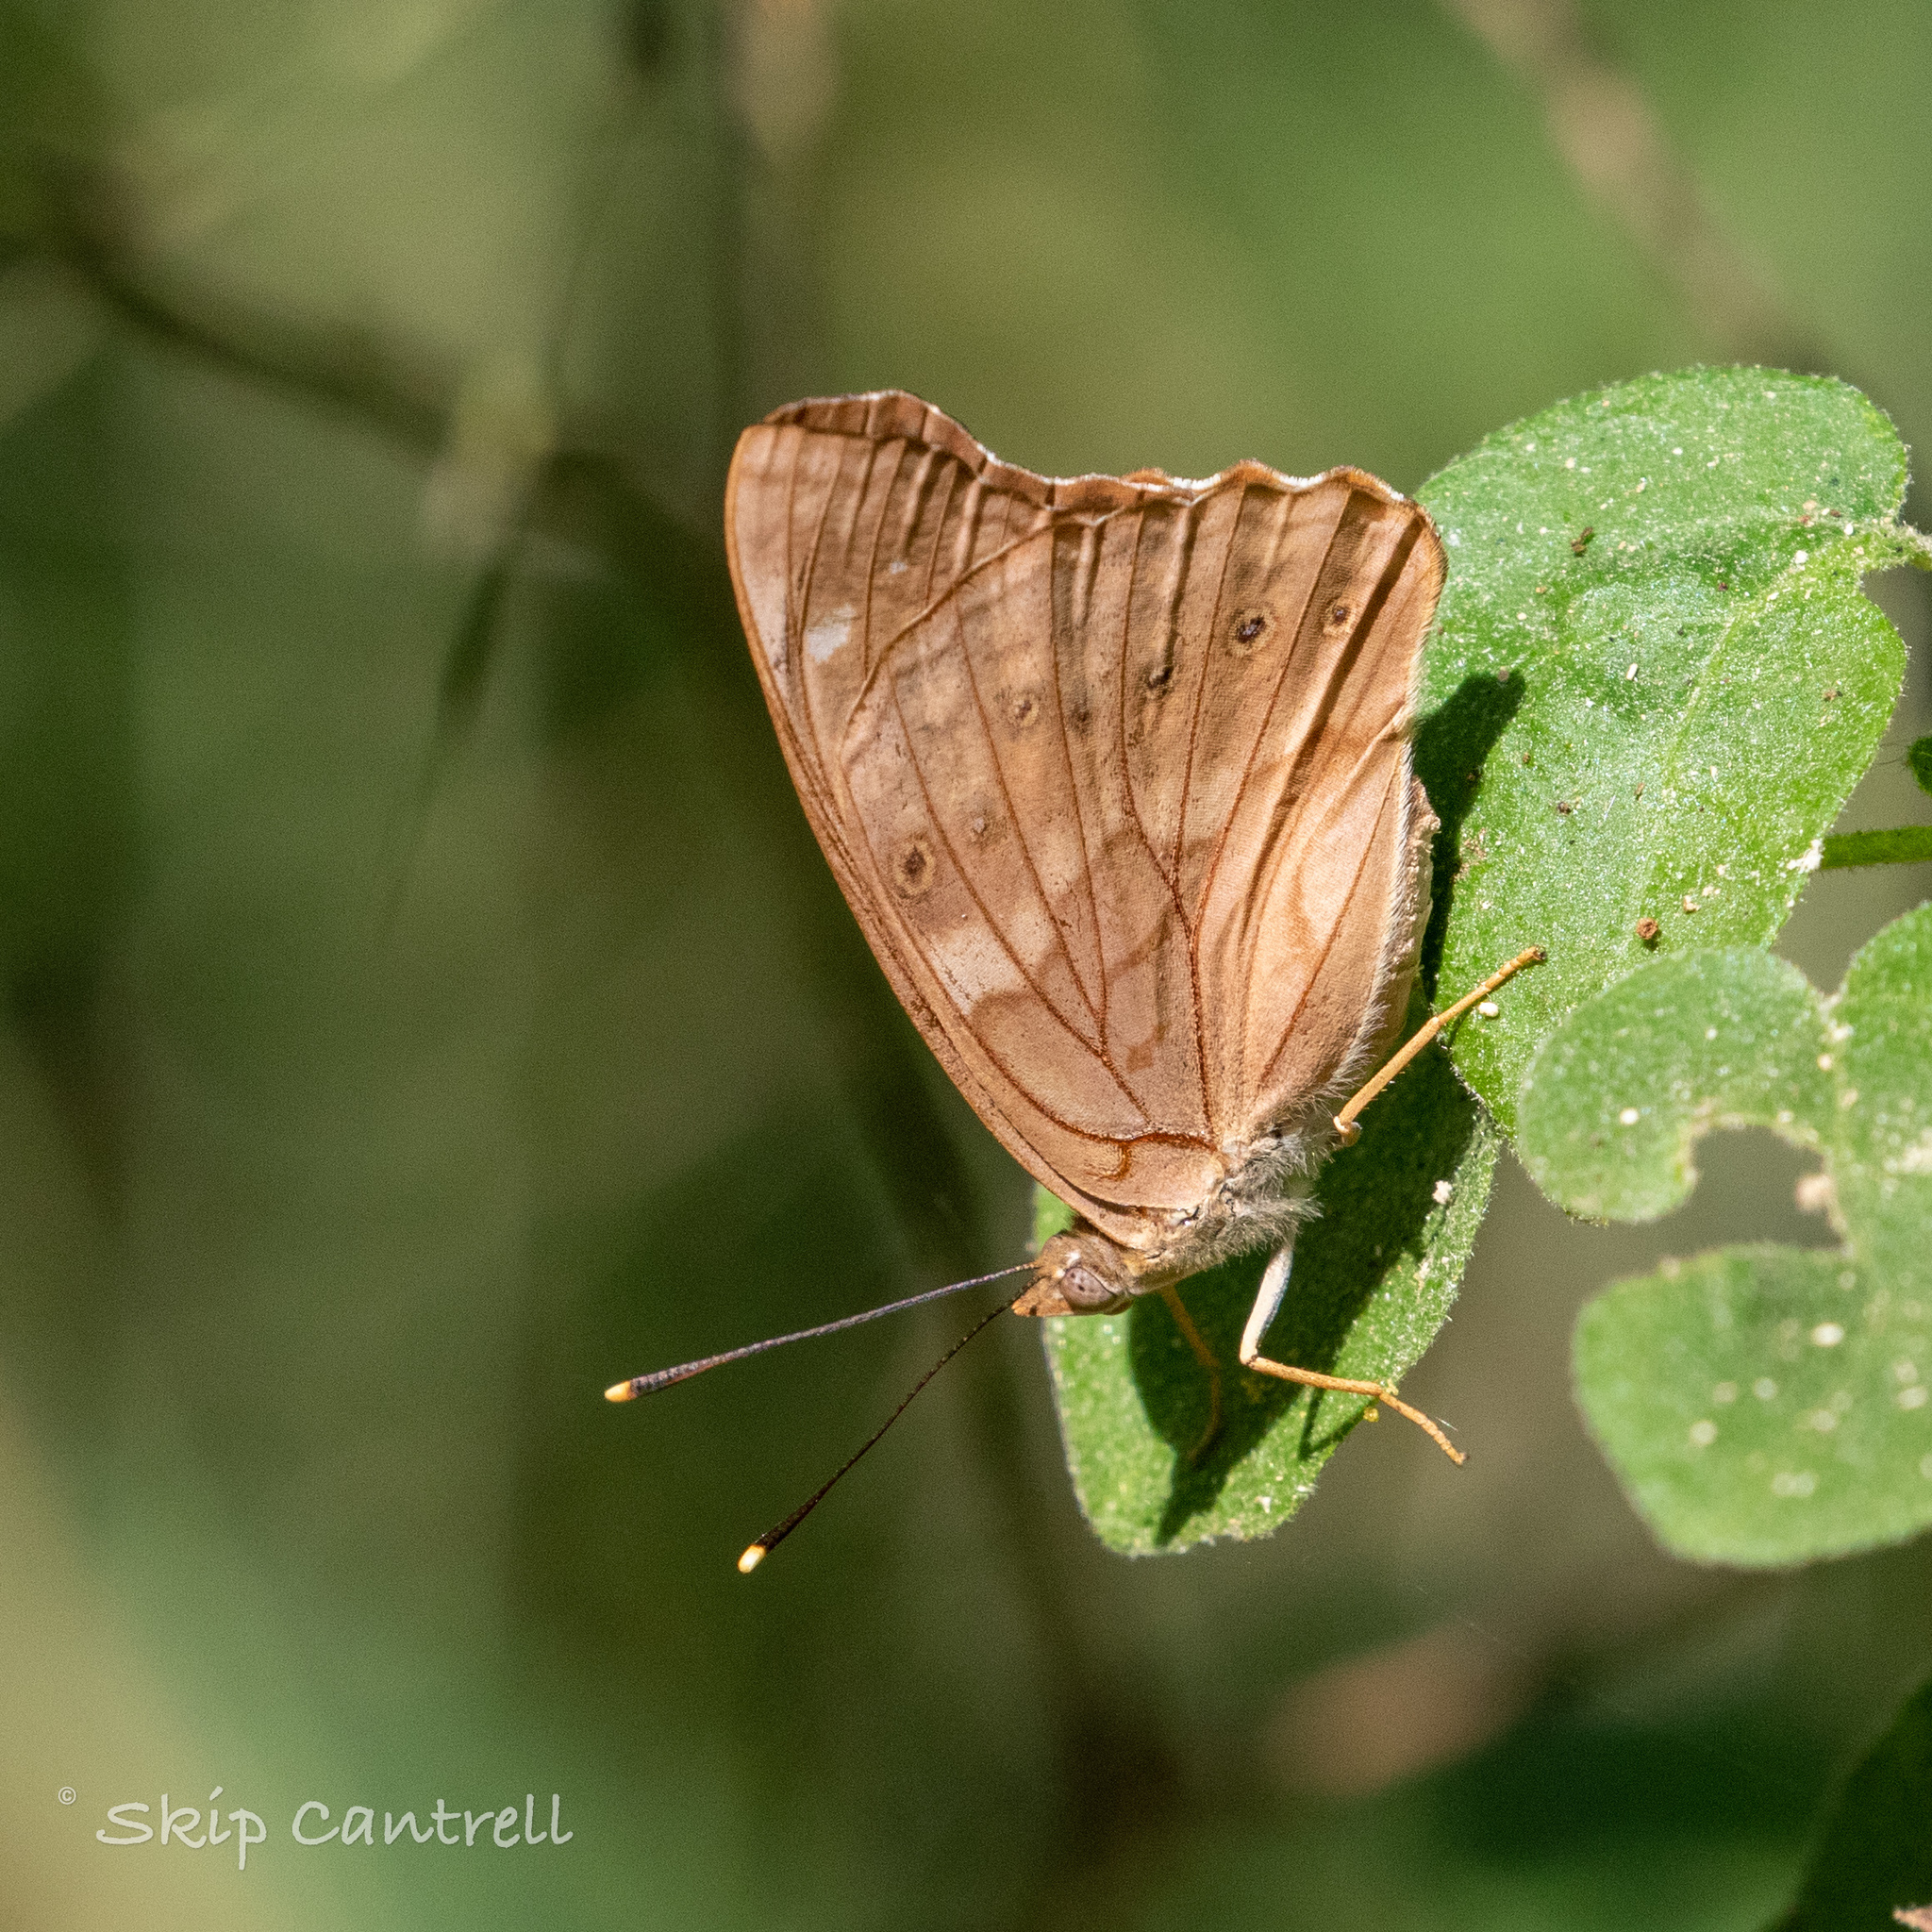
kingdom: Animalia
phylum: Arthropoda
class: Insecta
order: Lepidoptera
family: Nymphalidae
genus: Asterocampa
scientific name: Asterocampa clyton
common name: Tawny emperor
